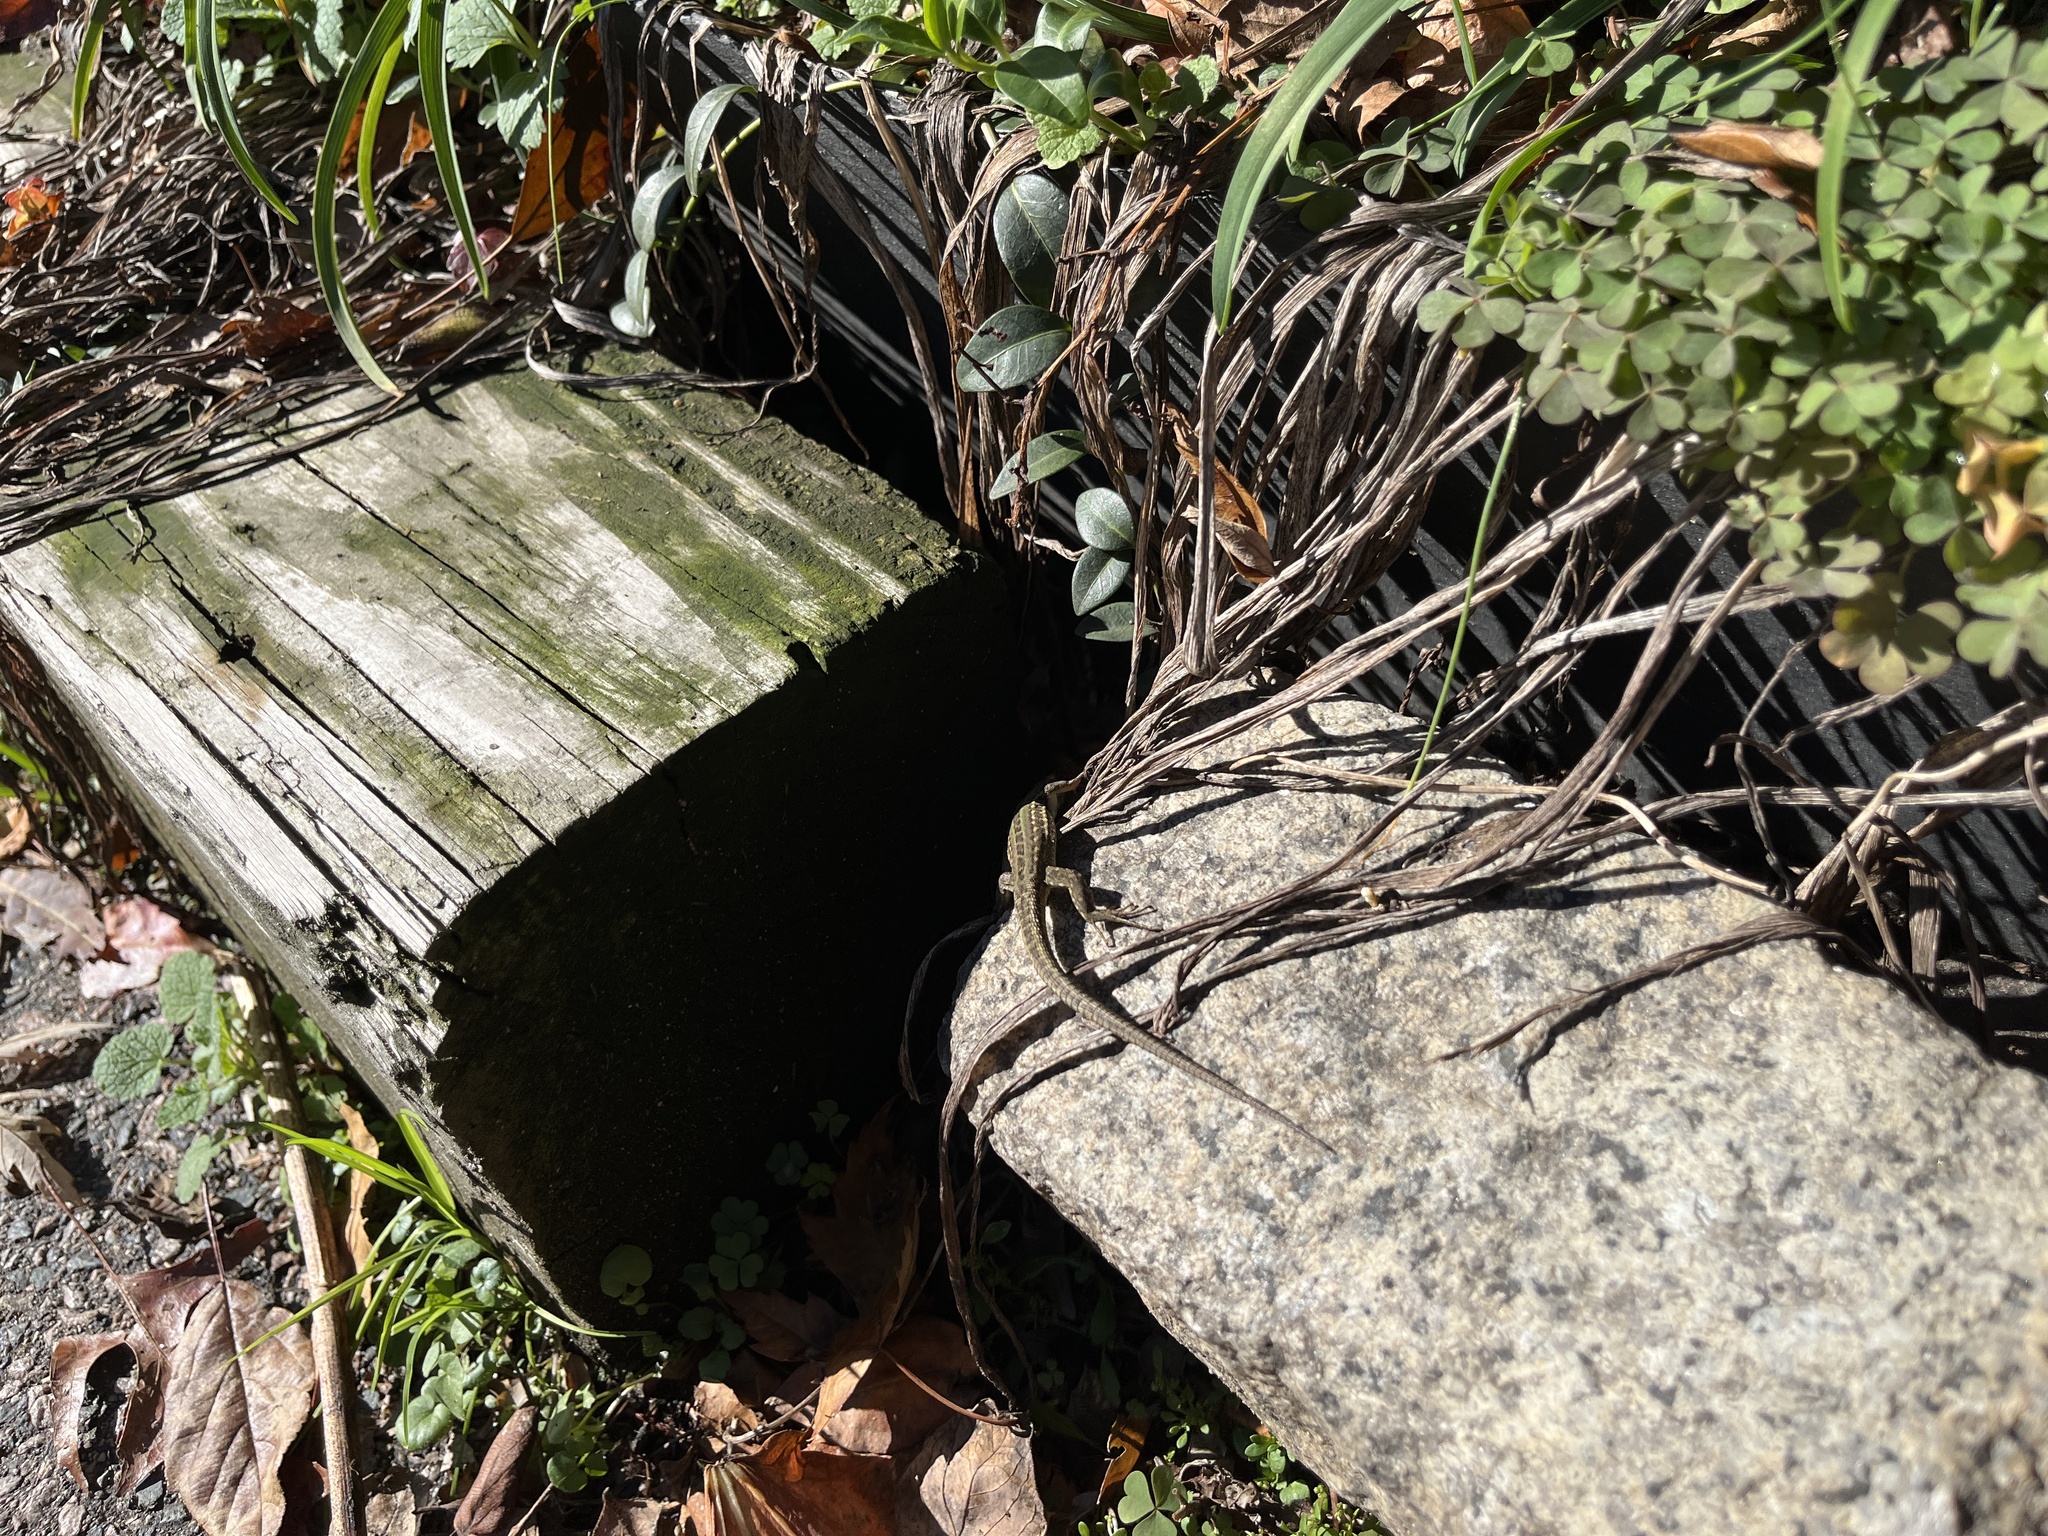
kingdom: Animalia
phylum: Chordata
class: Squamata
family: Lacertidae
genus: Podarcis
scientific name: Podarcis siculus
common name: Italian wall lizard
